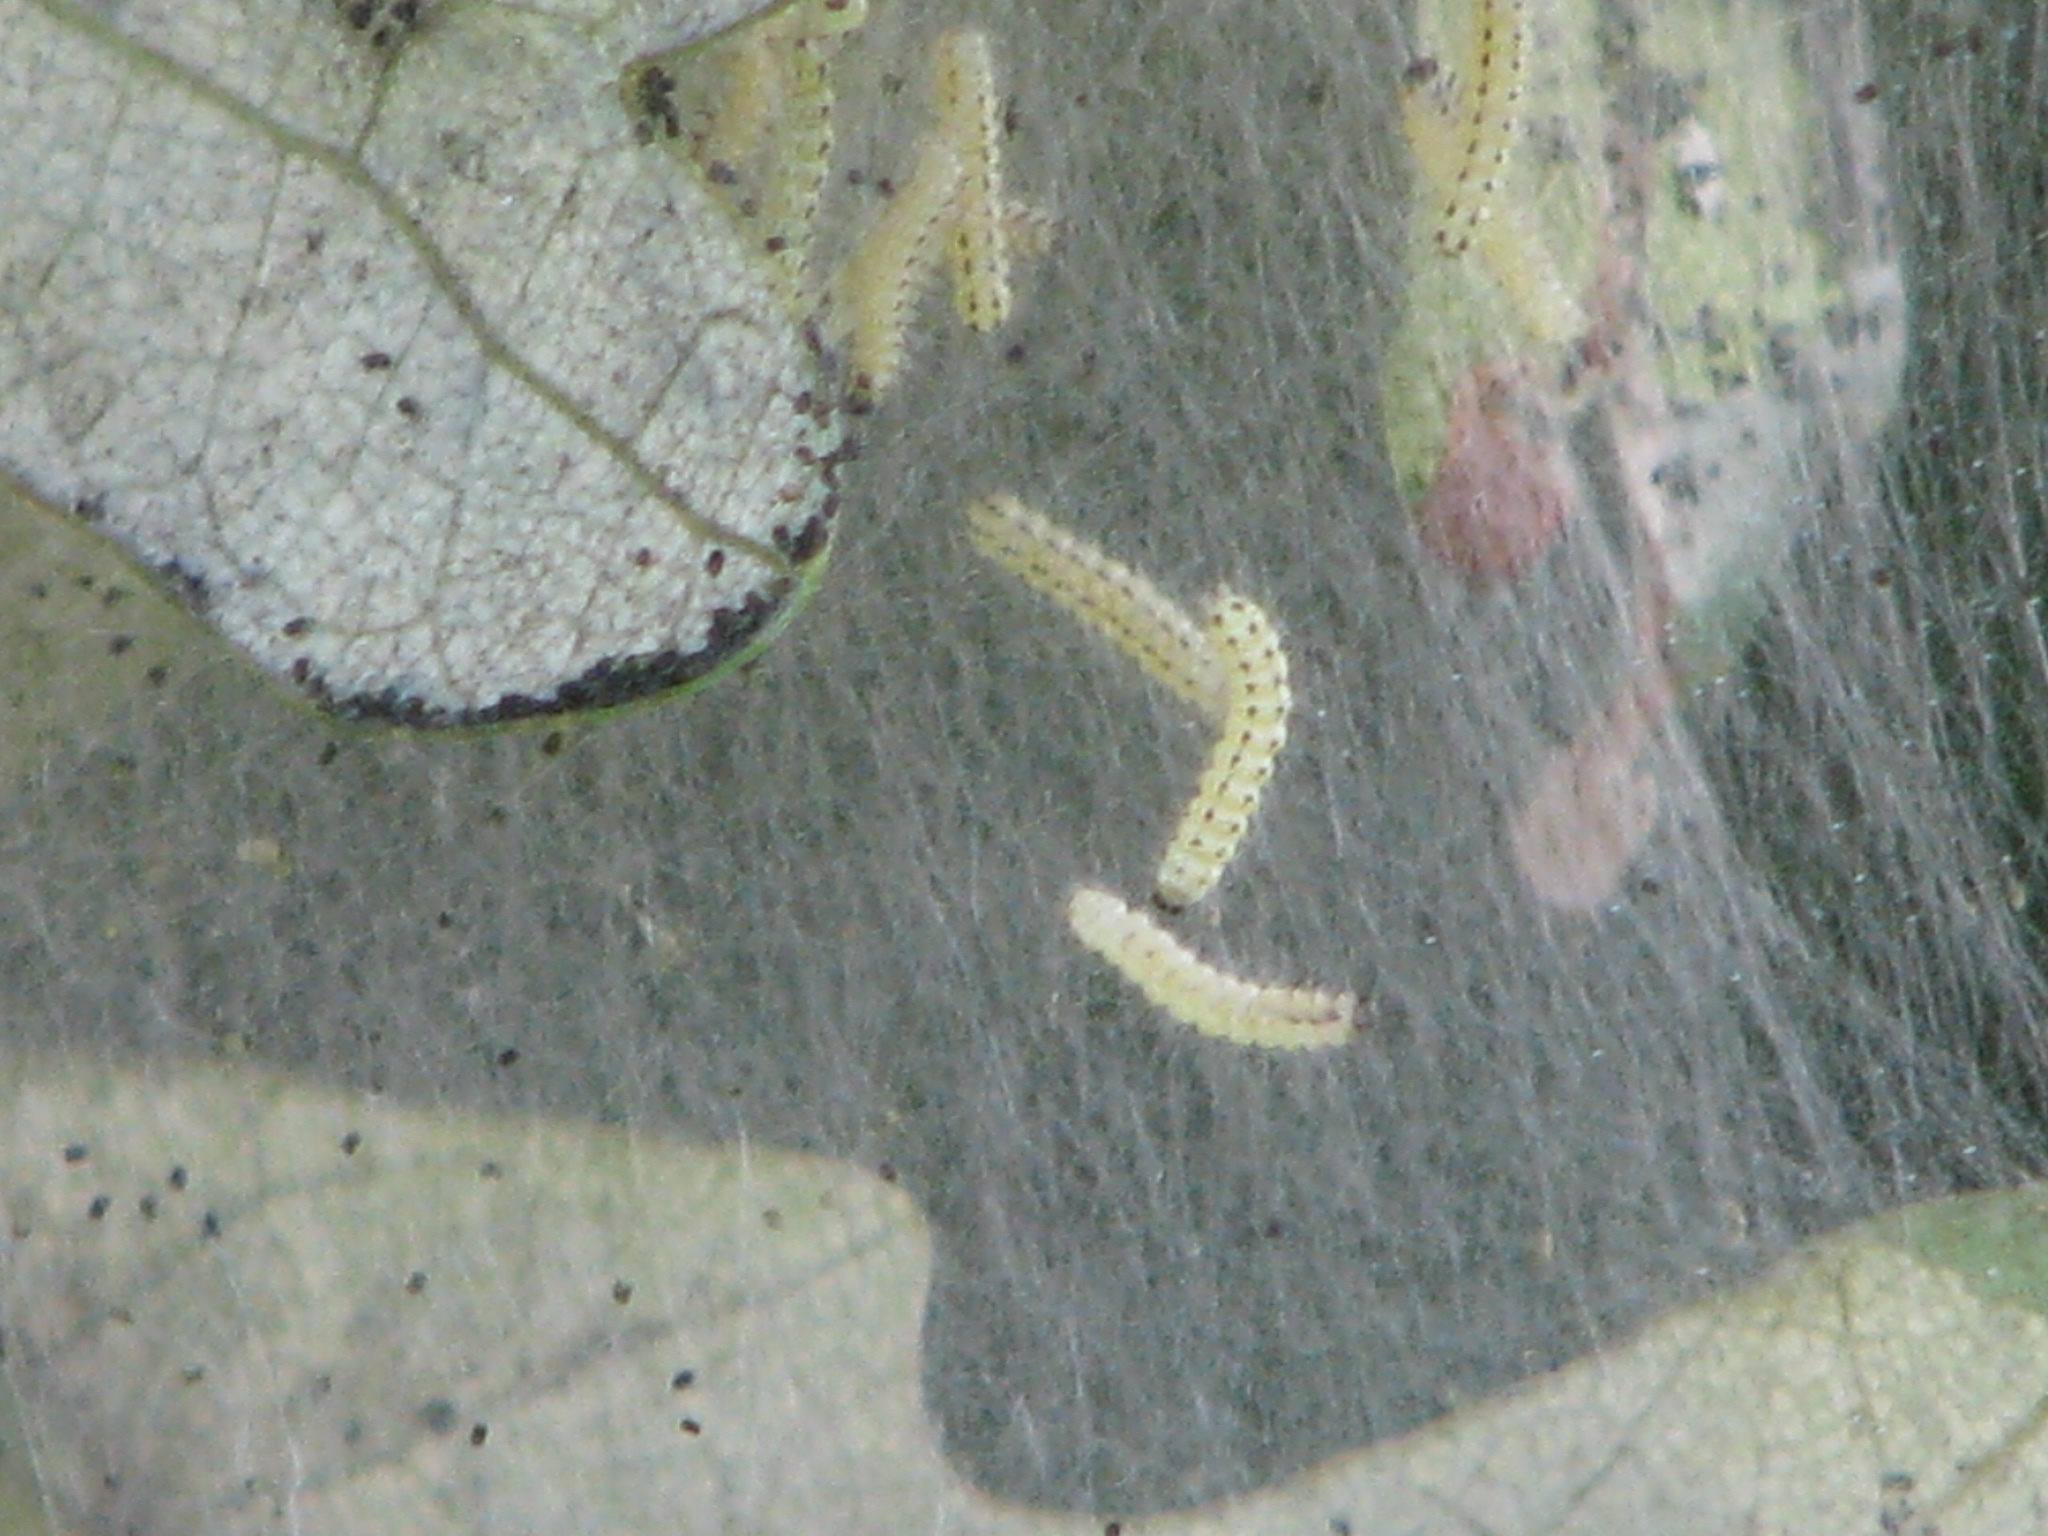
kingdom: Animalia
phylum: Arthropoda
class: Insecta
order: Lepidoptera
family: Erebidae
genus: Hyphantria
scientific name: Hyphantria cunea
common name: American white moth
